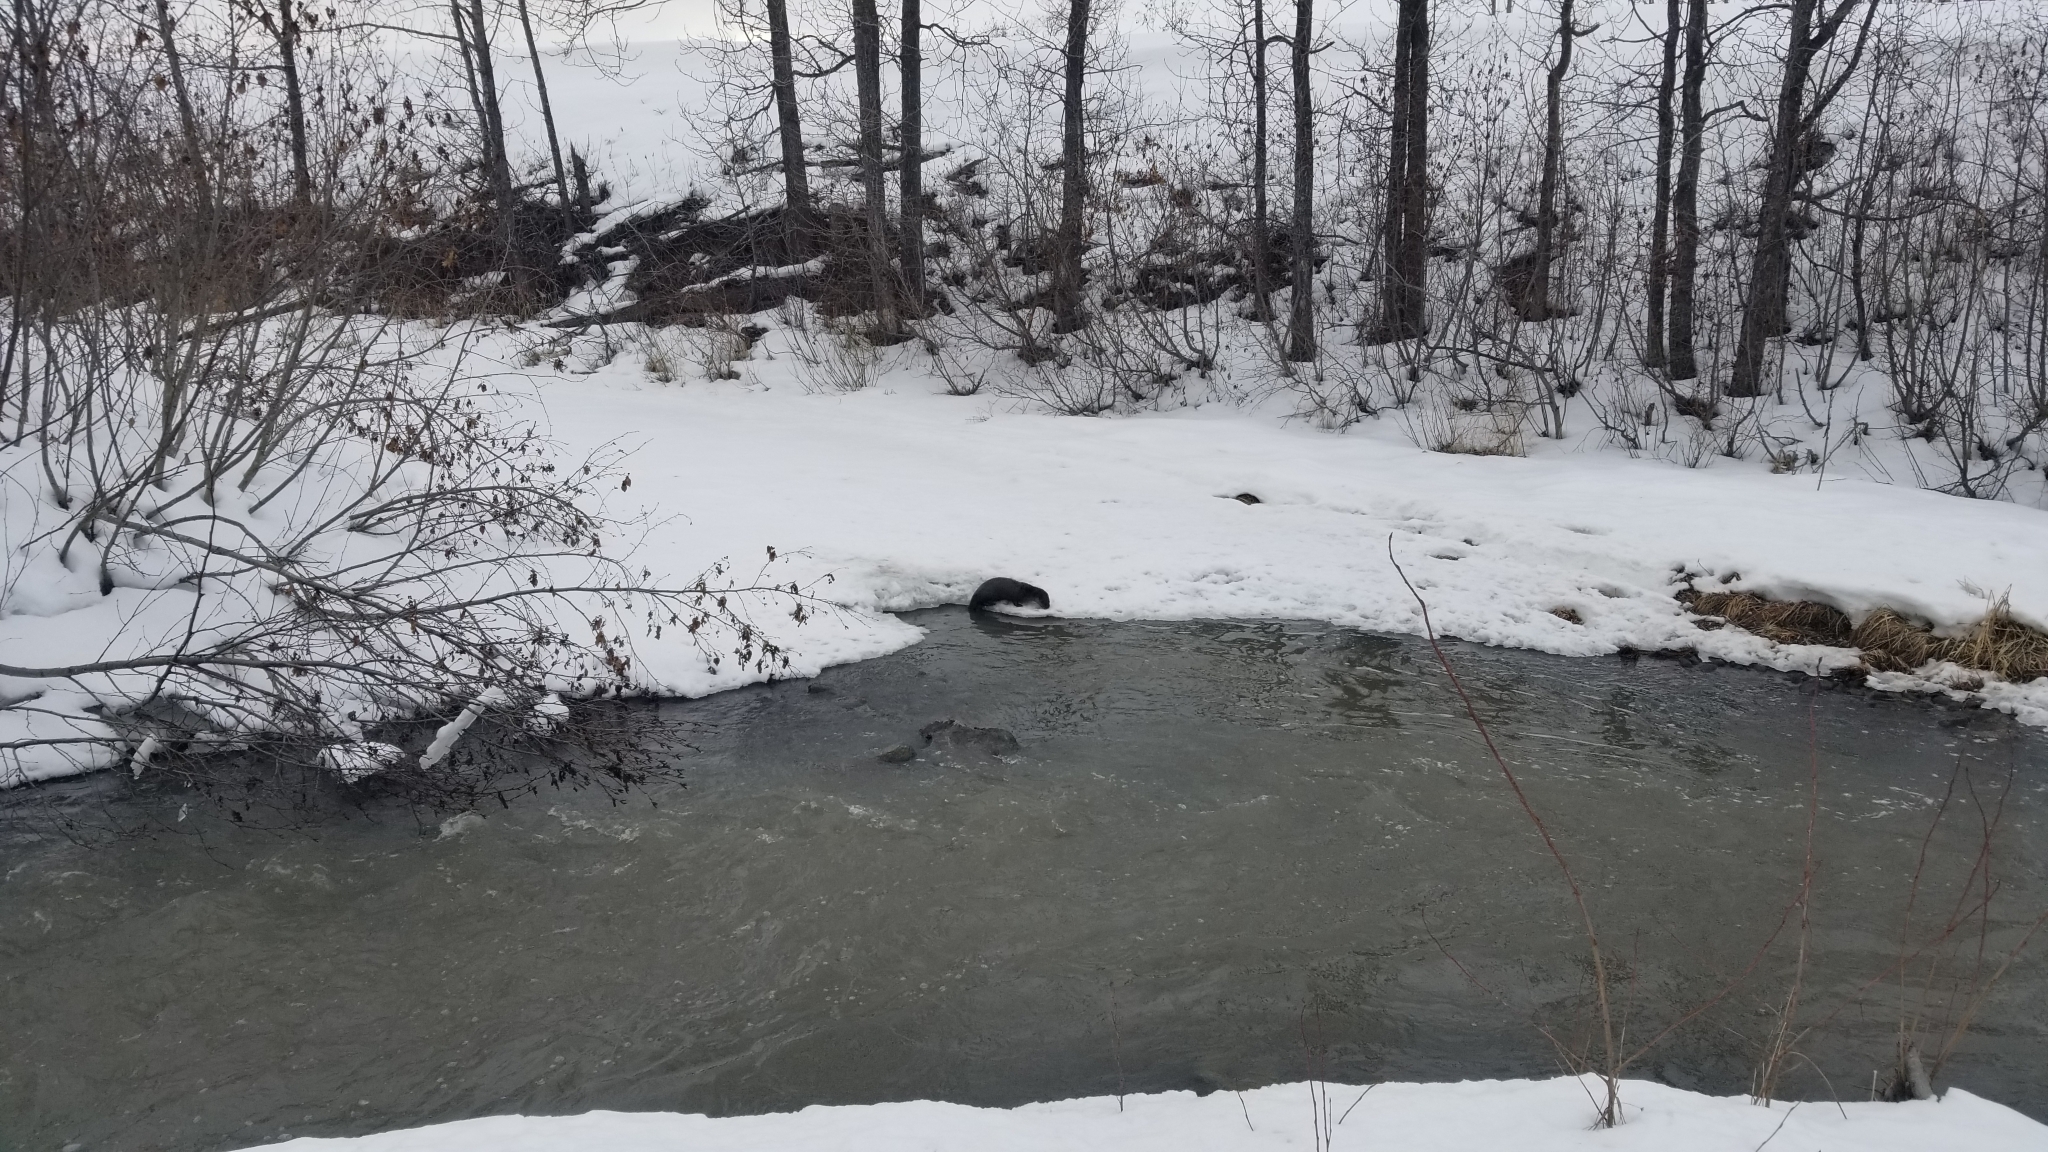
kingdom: Animalia
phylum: Chordata
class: Mammalia
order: Carnivora
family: Mustelidae
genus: Lontra
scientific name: Lontra canadensis
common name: North american river otter
